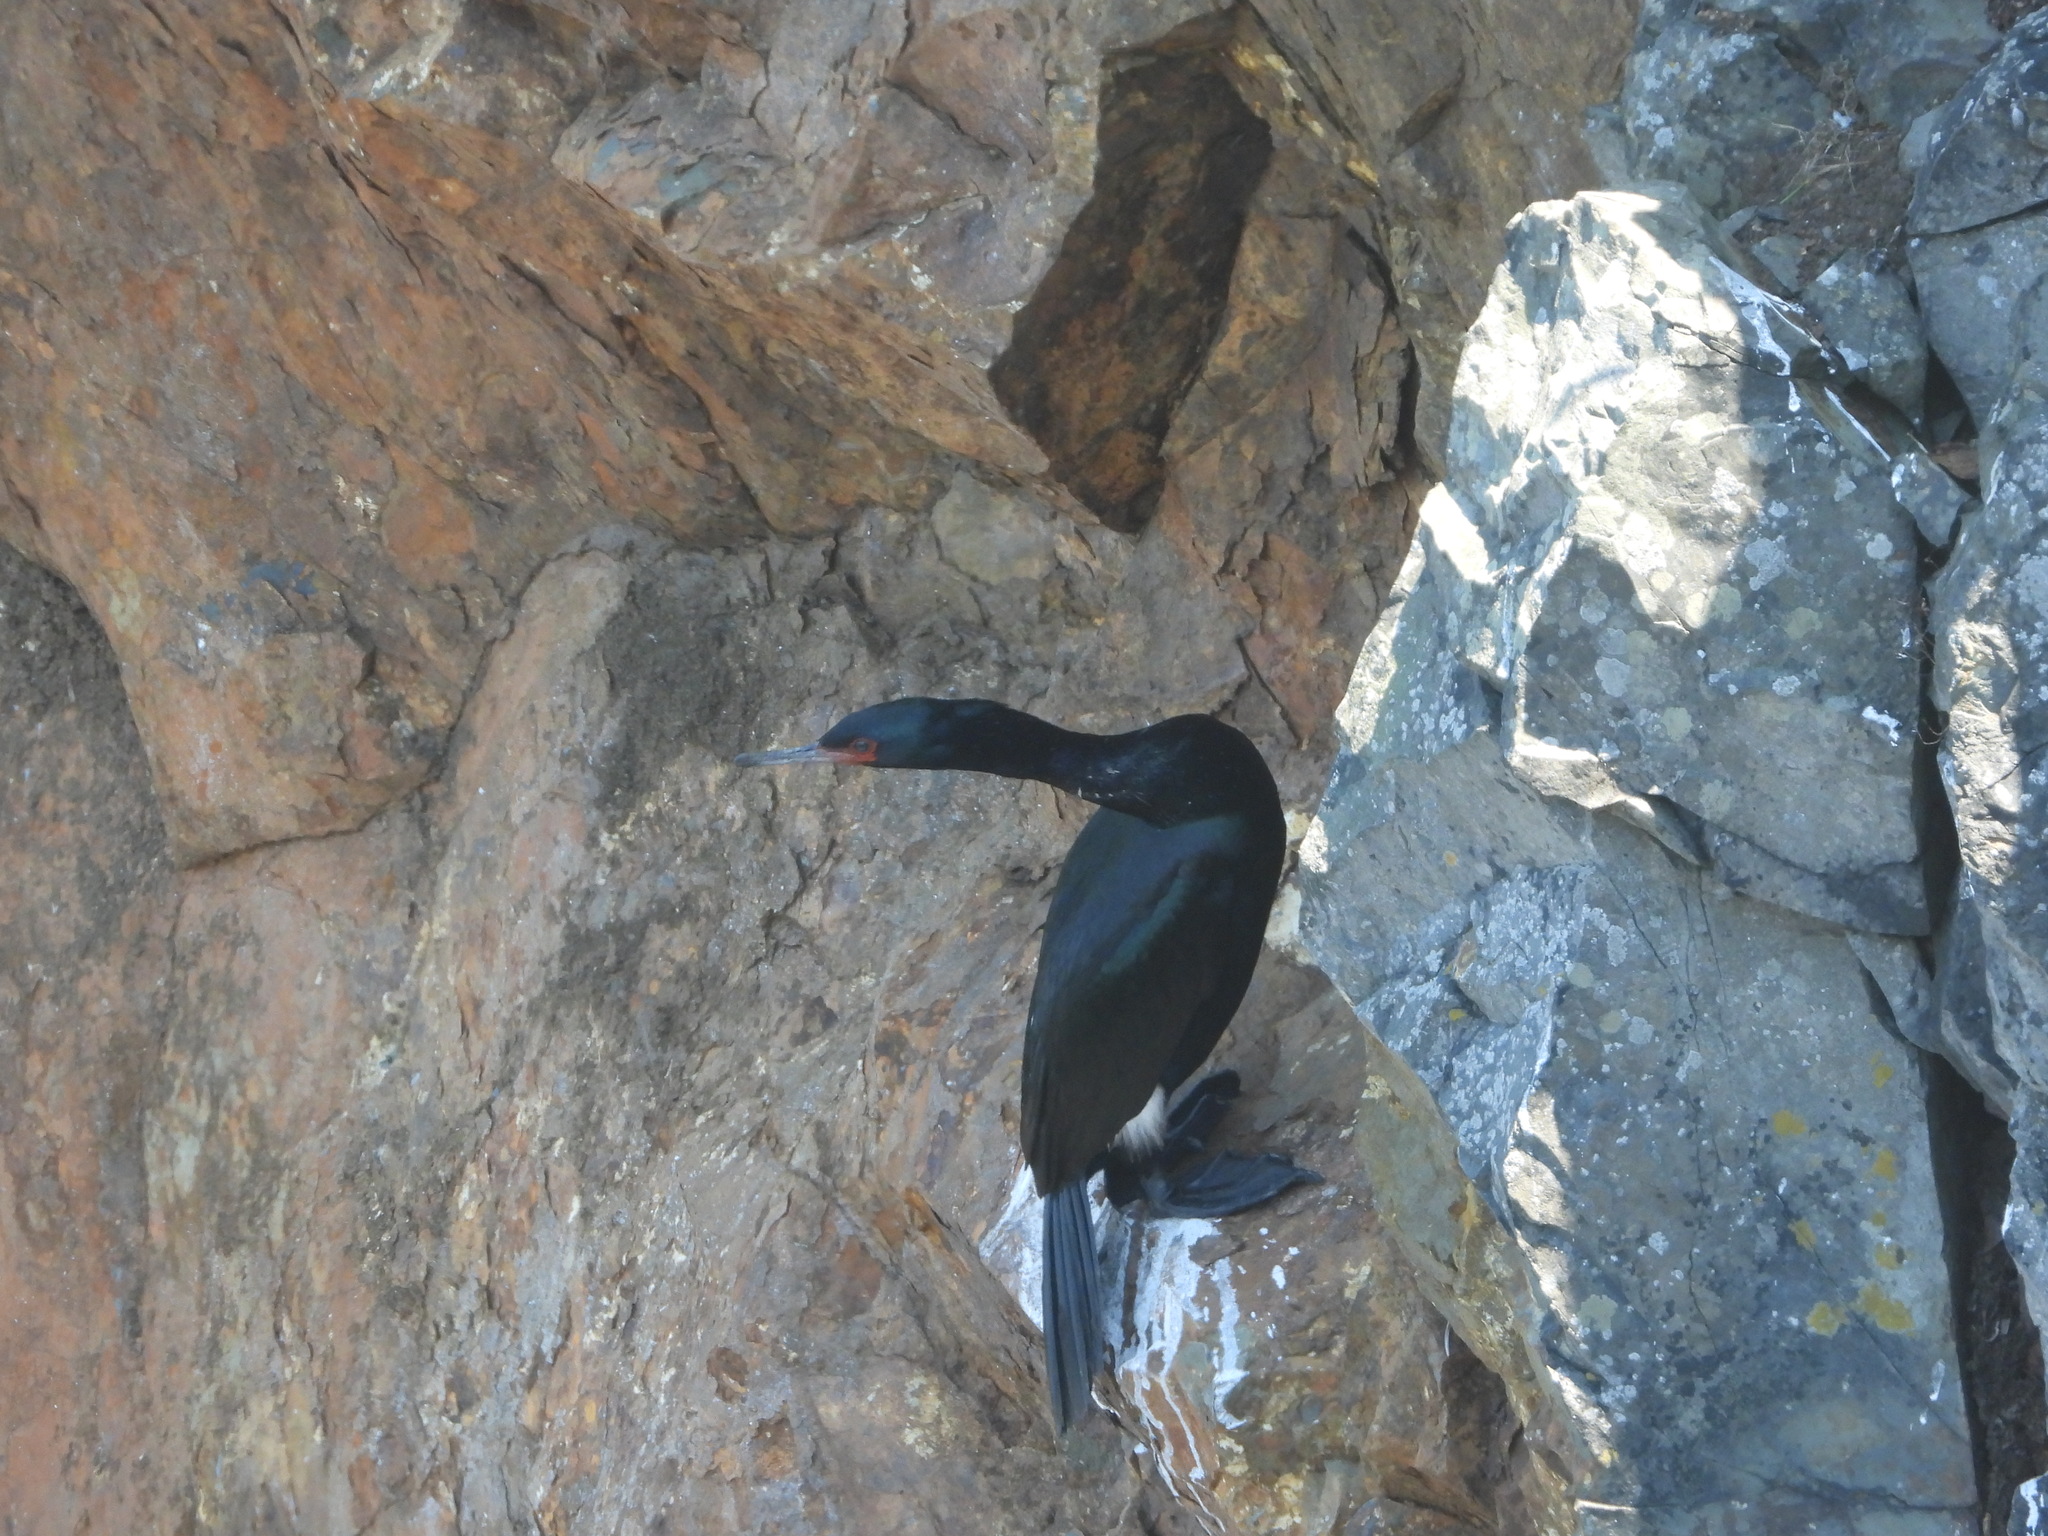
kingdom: Animalia
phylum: Chordata
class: Aves
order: Suliformes
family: Phalacrocoracidae
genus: Phalacrocorax
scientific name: Phalacrocorax pelagicus
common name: Pelagic cormorant
